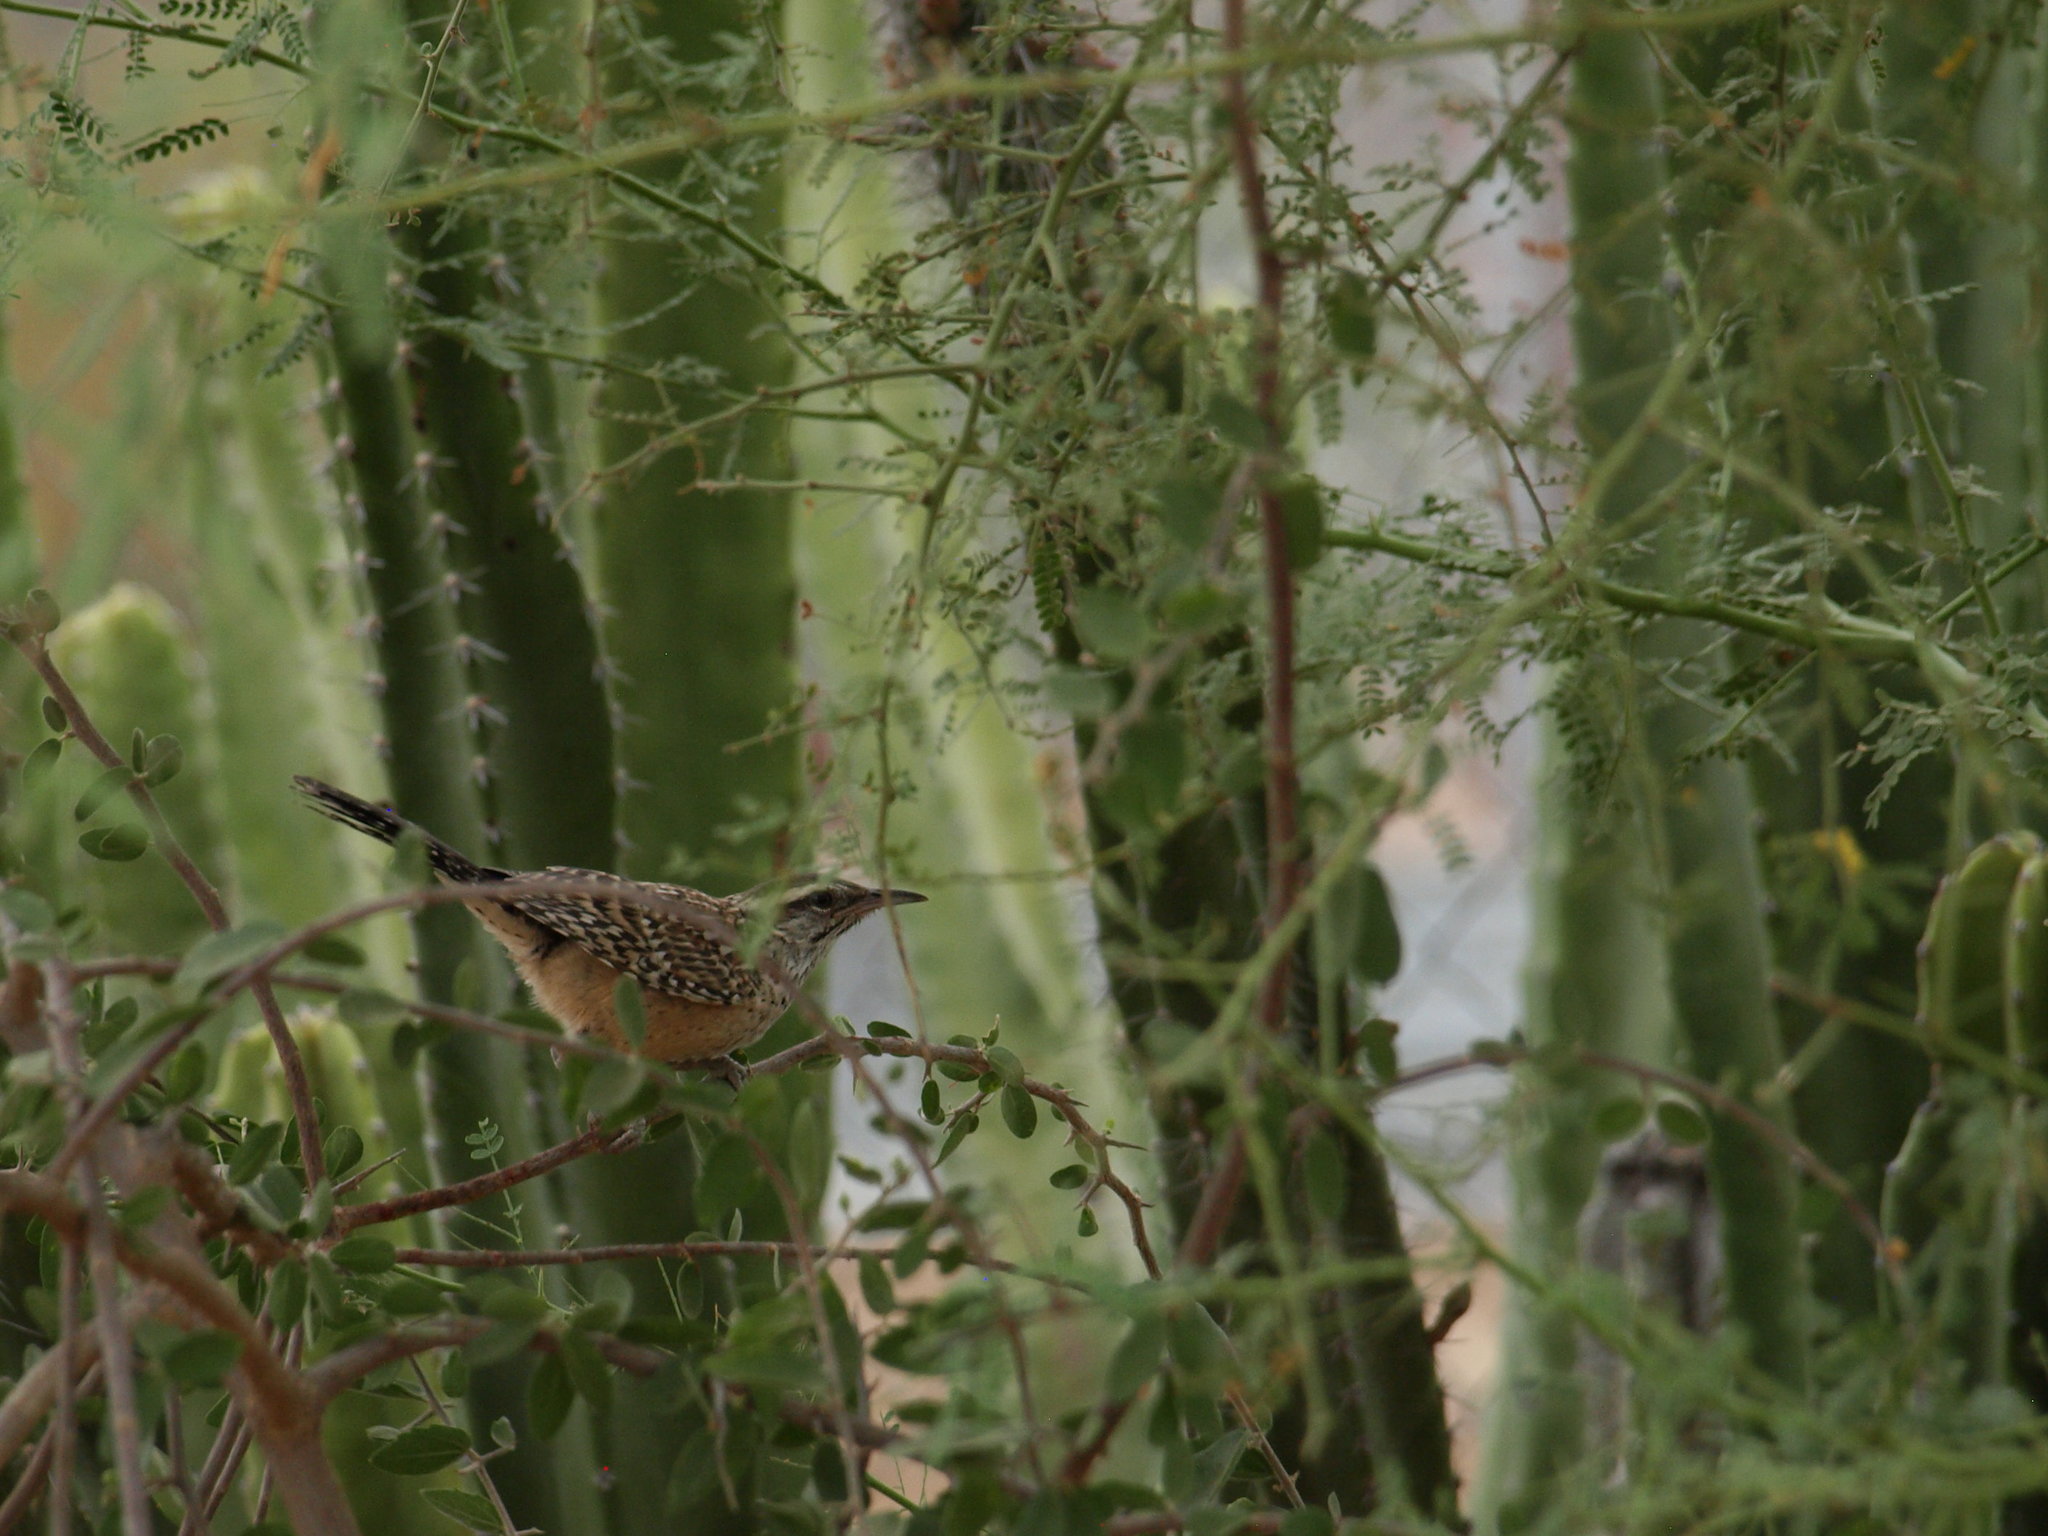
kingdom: Animalia
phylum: Chordata
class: Aves
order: Passeriformes
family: Troglodytidae
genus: Campylorhynchus
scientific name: Campylorhynchus brunneicapillus
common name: Cactus wren
